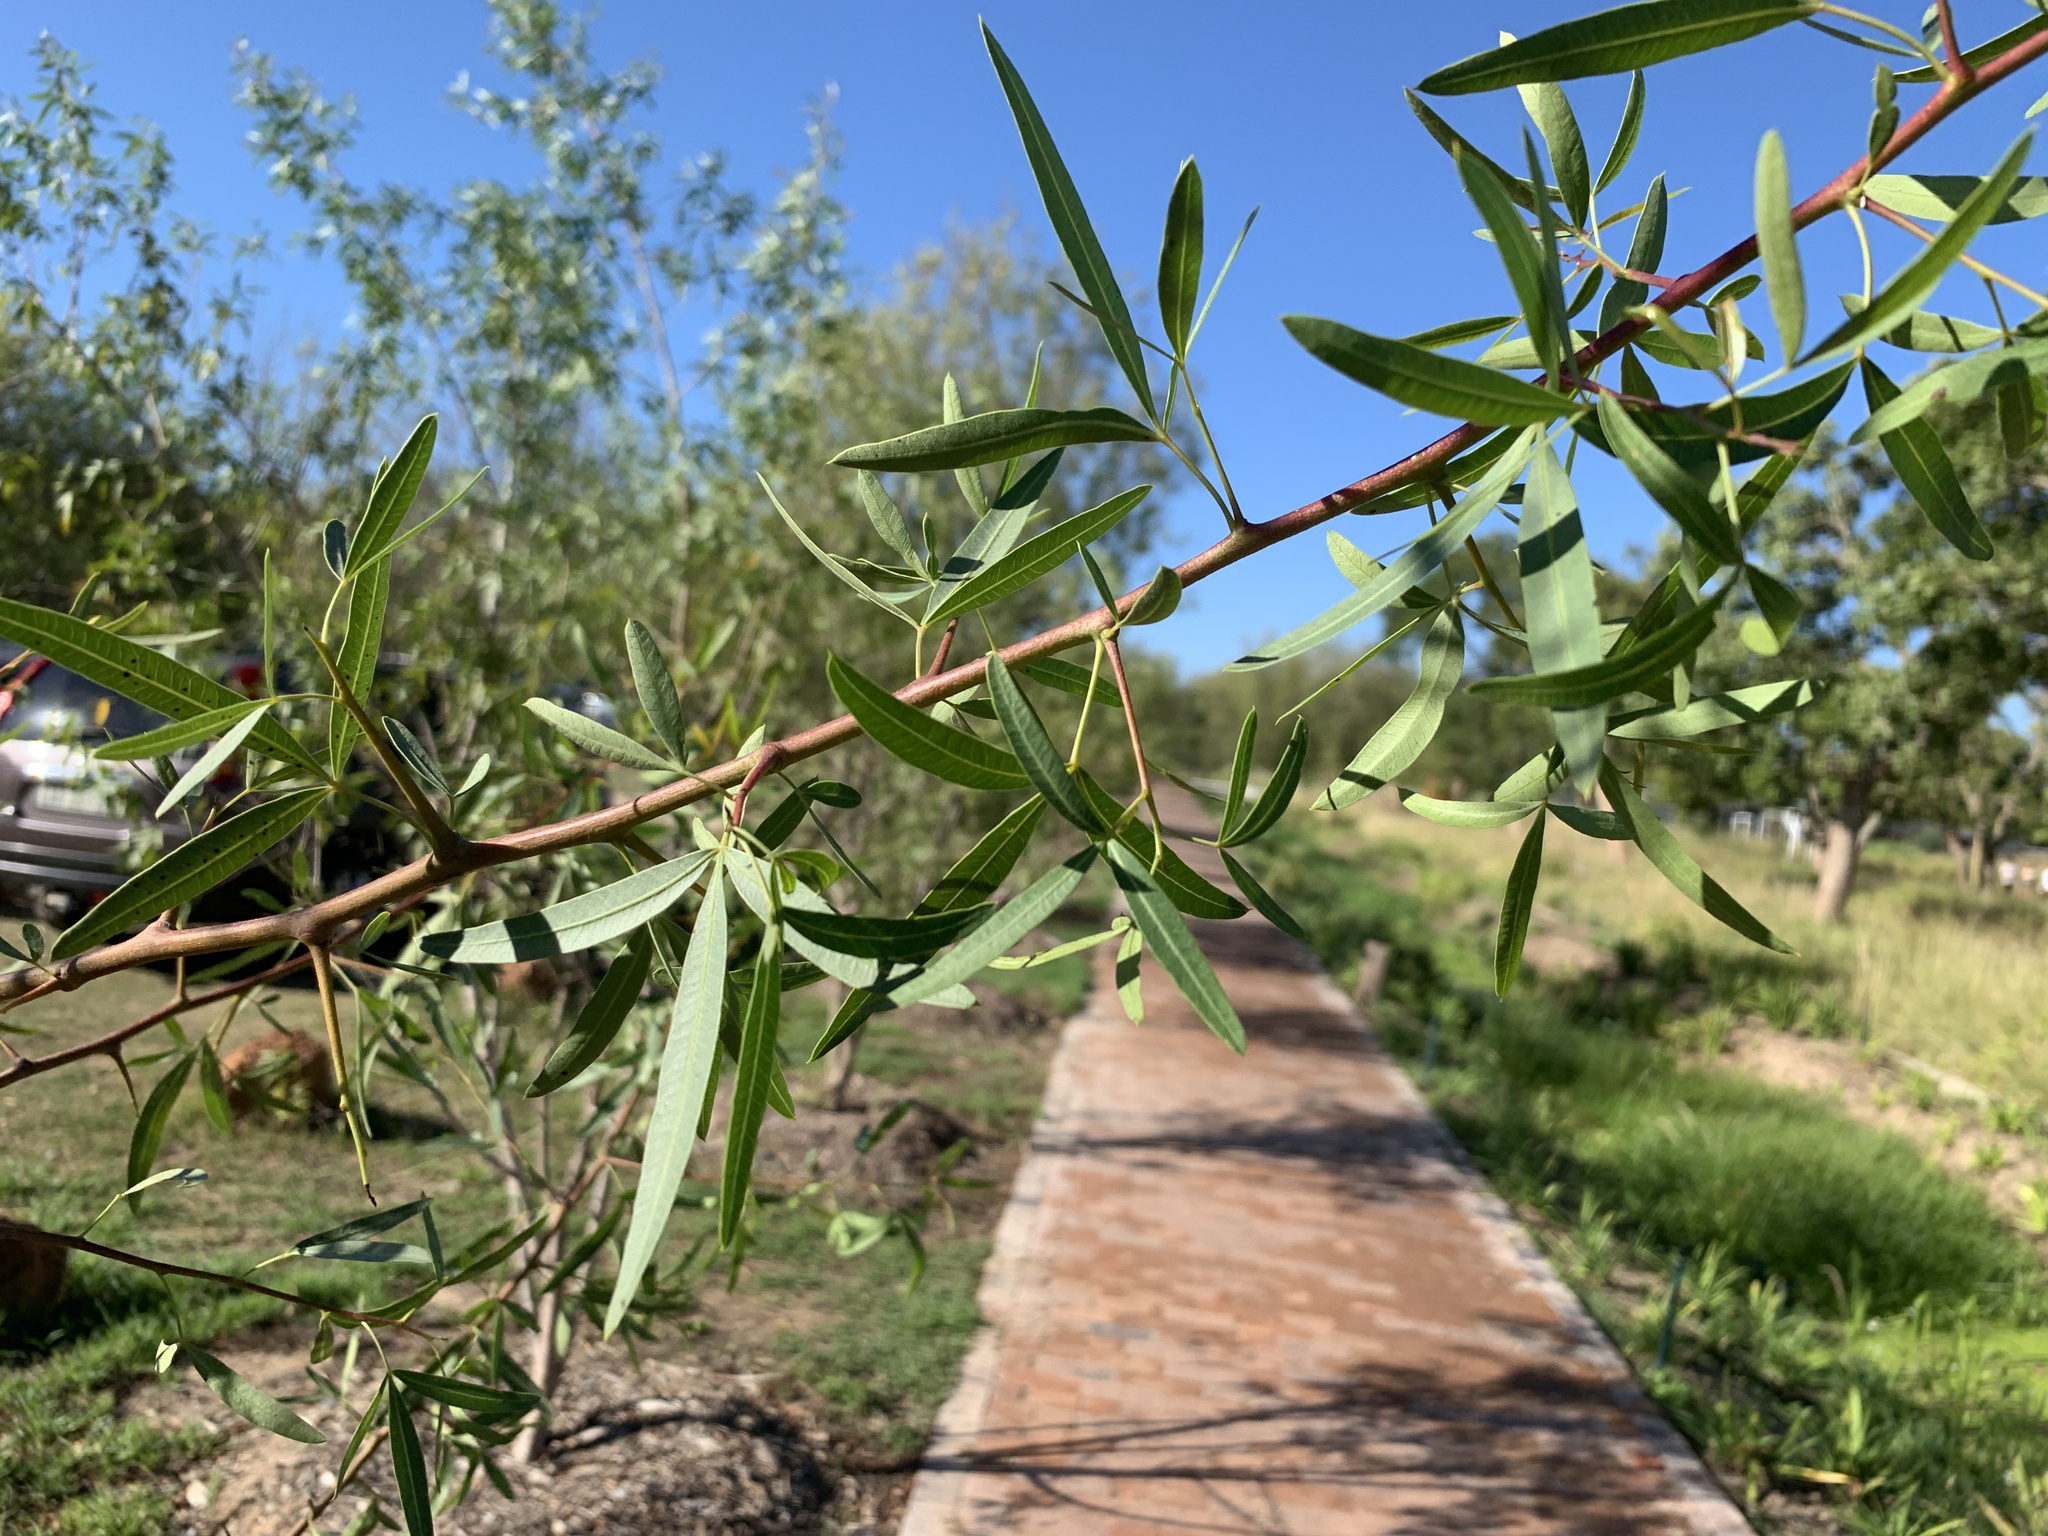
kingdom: Plantae
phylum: Tracheophyta
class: Magnoliopsida
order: Sapindales
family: Anacardiaceae
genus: Searsia
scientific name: Searsia pendulina
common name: White karee
